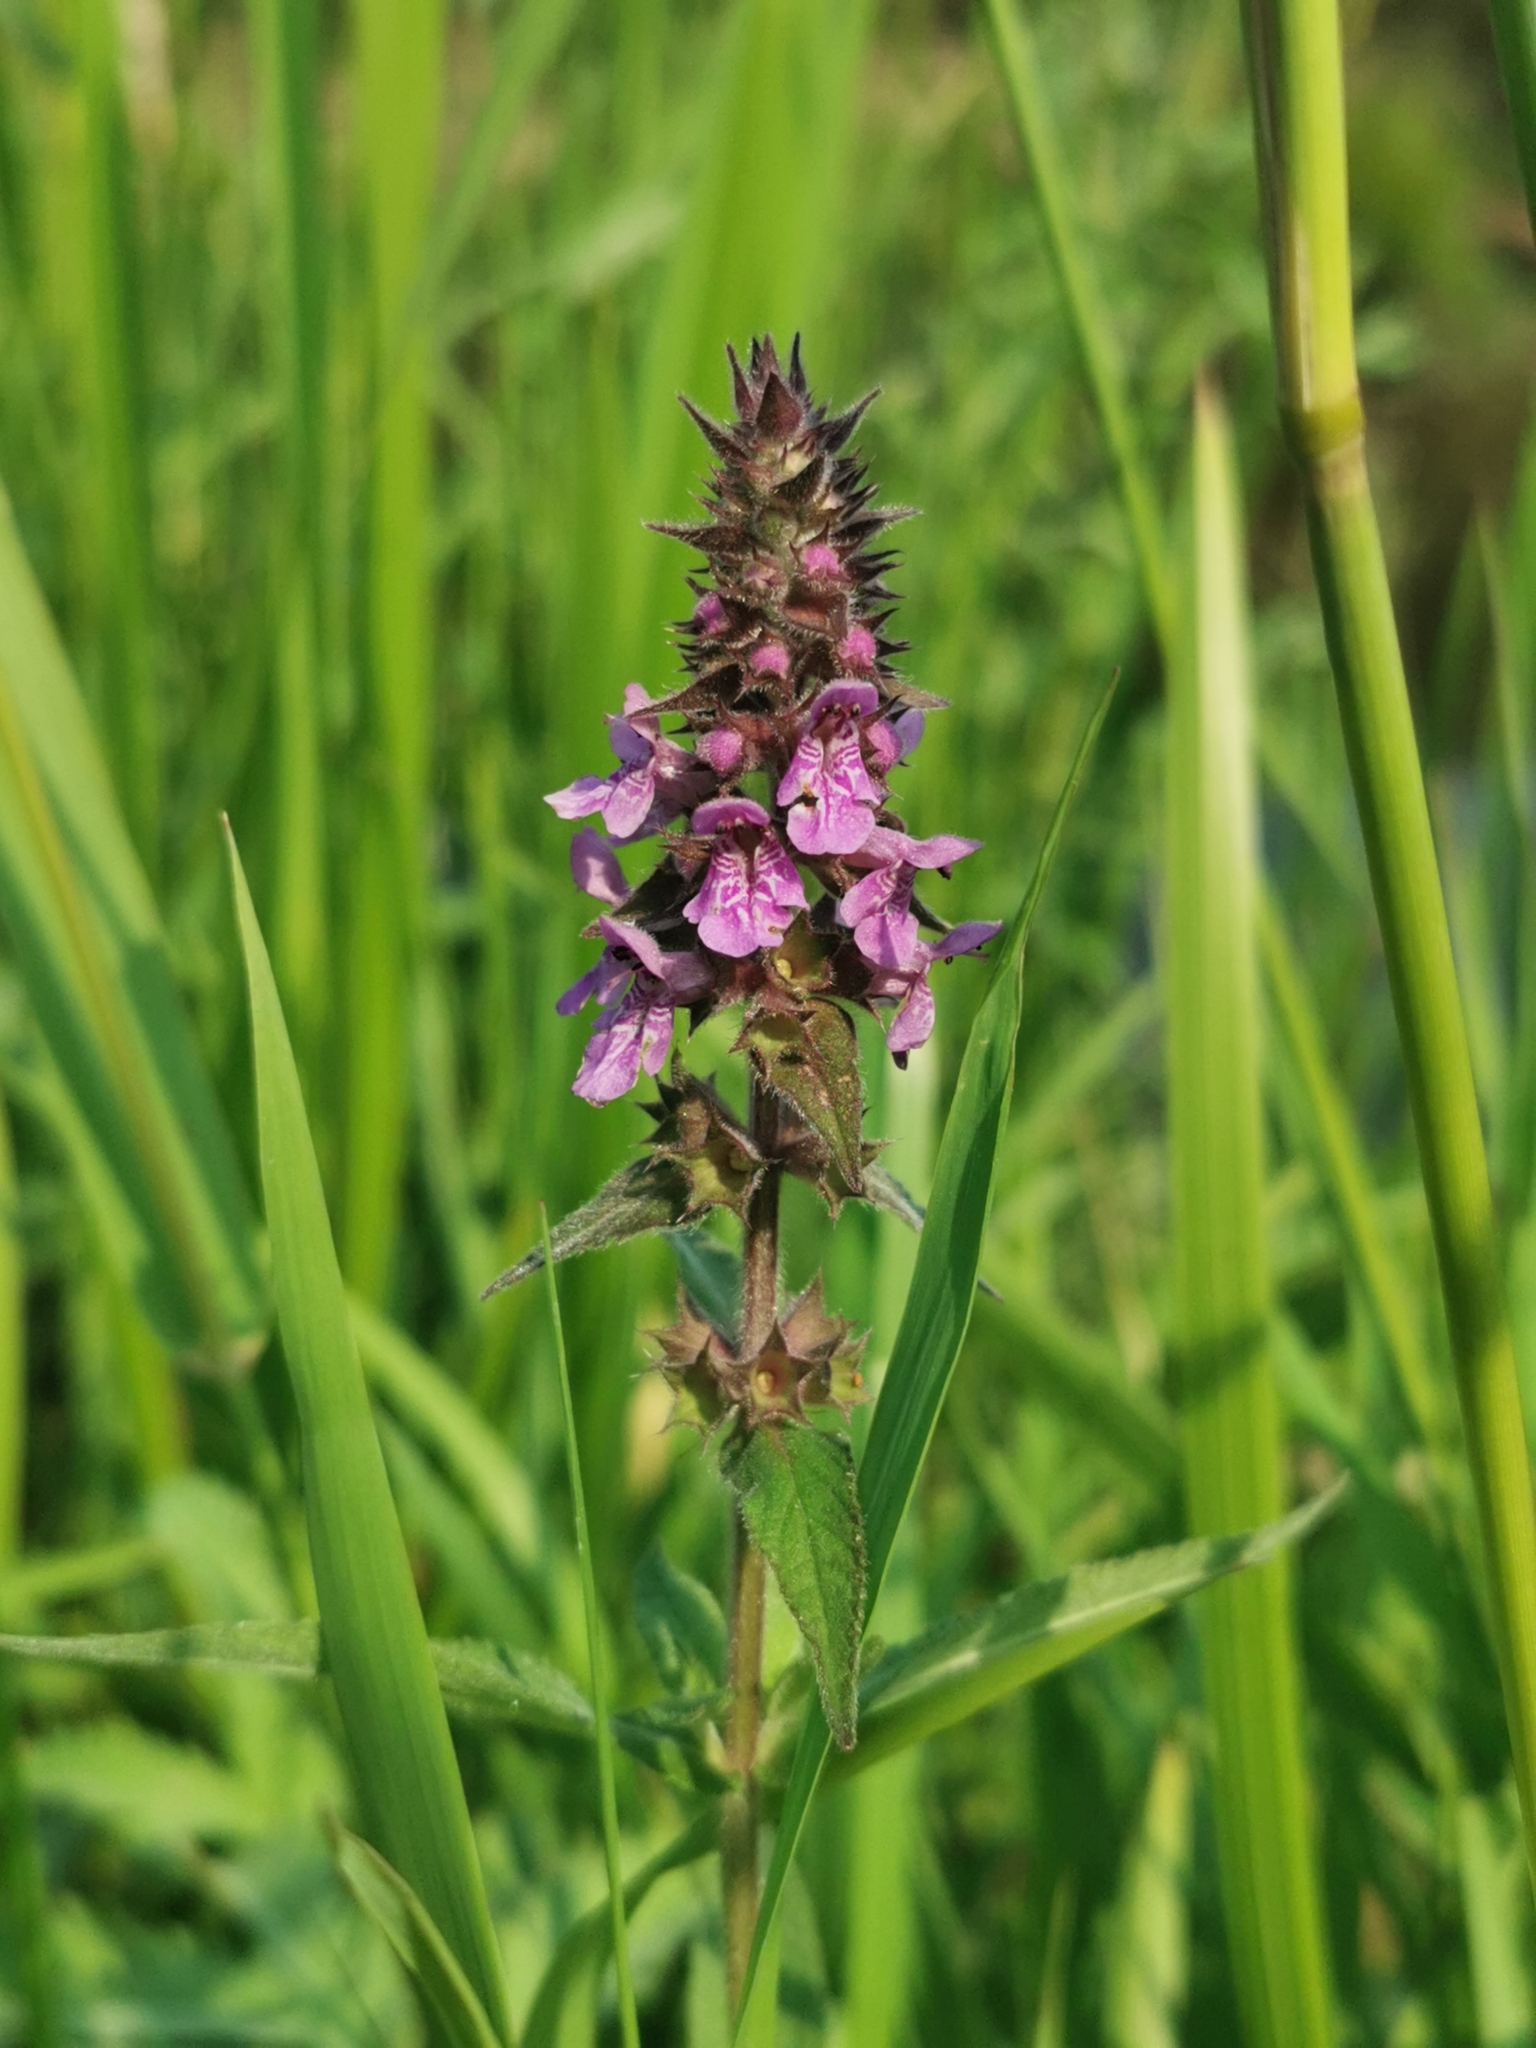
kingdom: Plantae
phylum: Tracheophyta
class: Magnoliopsida
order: Lamiales
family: Lamiaceae
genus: Stachys
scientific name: Stachys palustris
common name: Marsh woundwort
